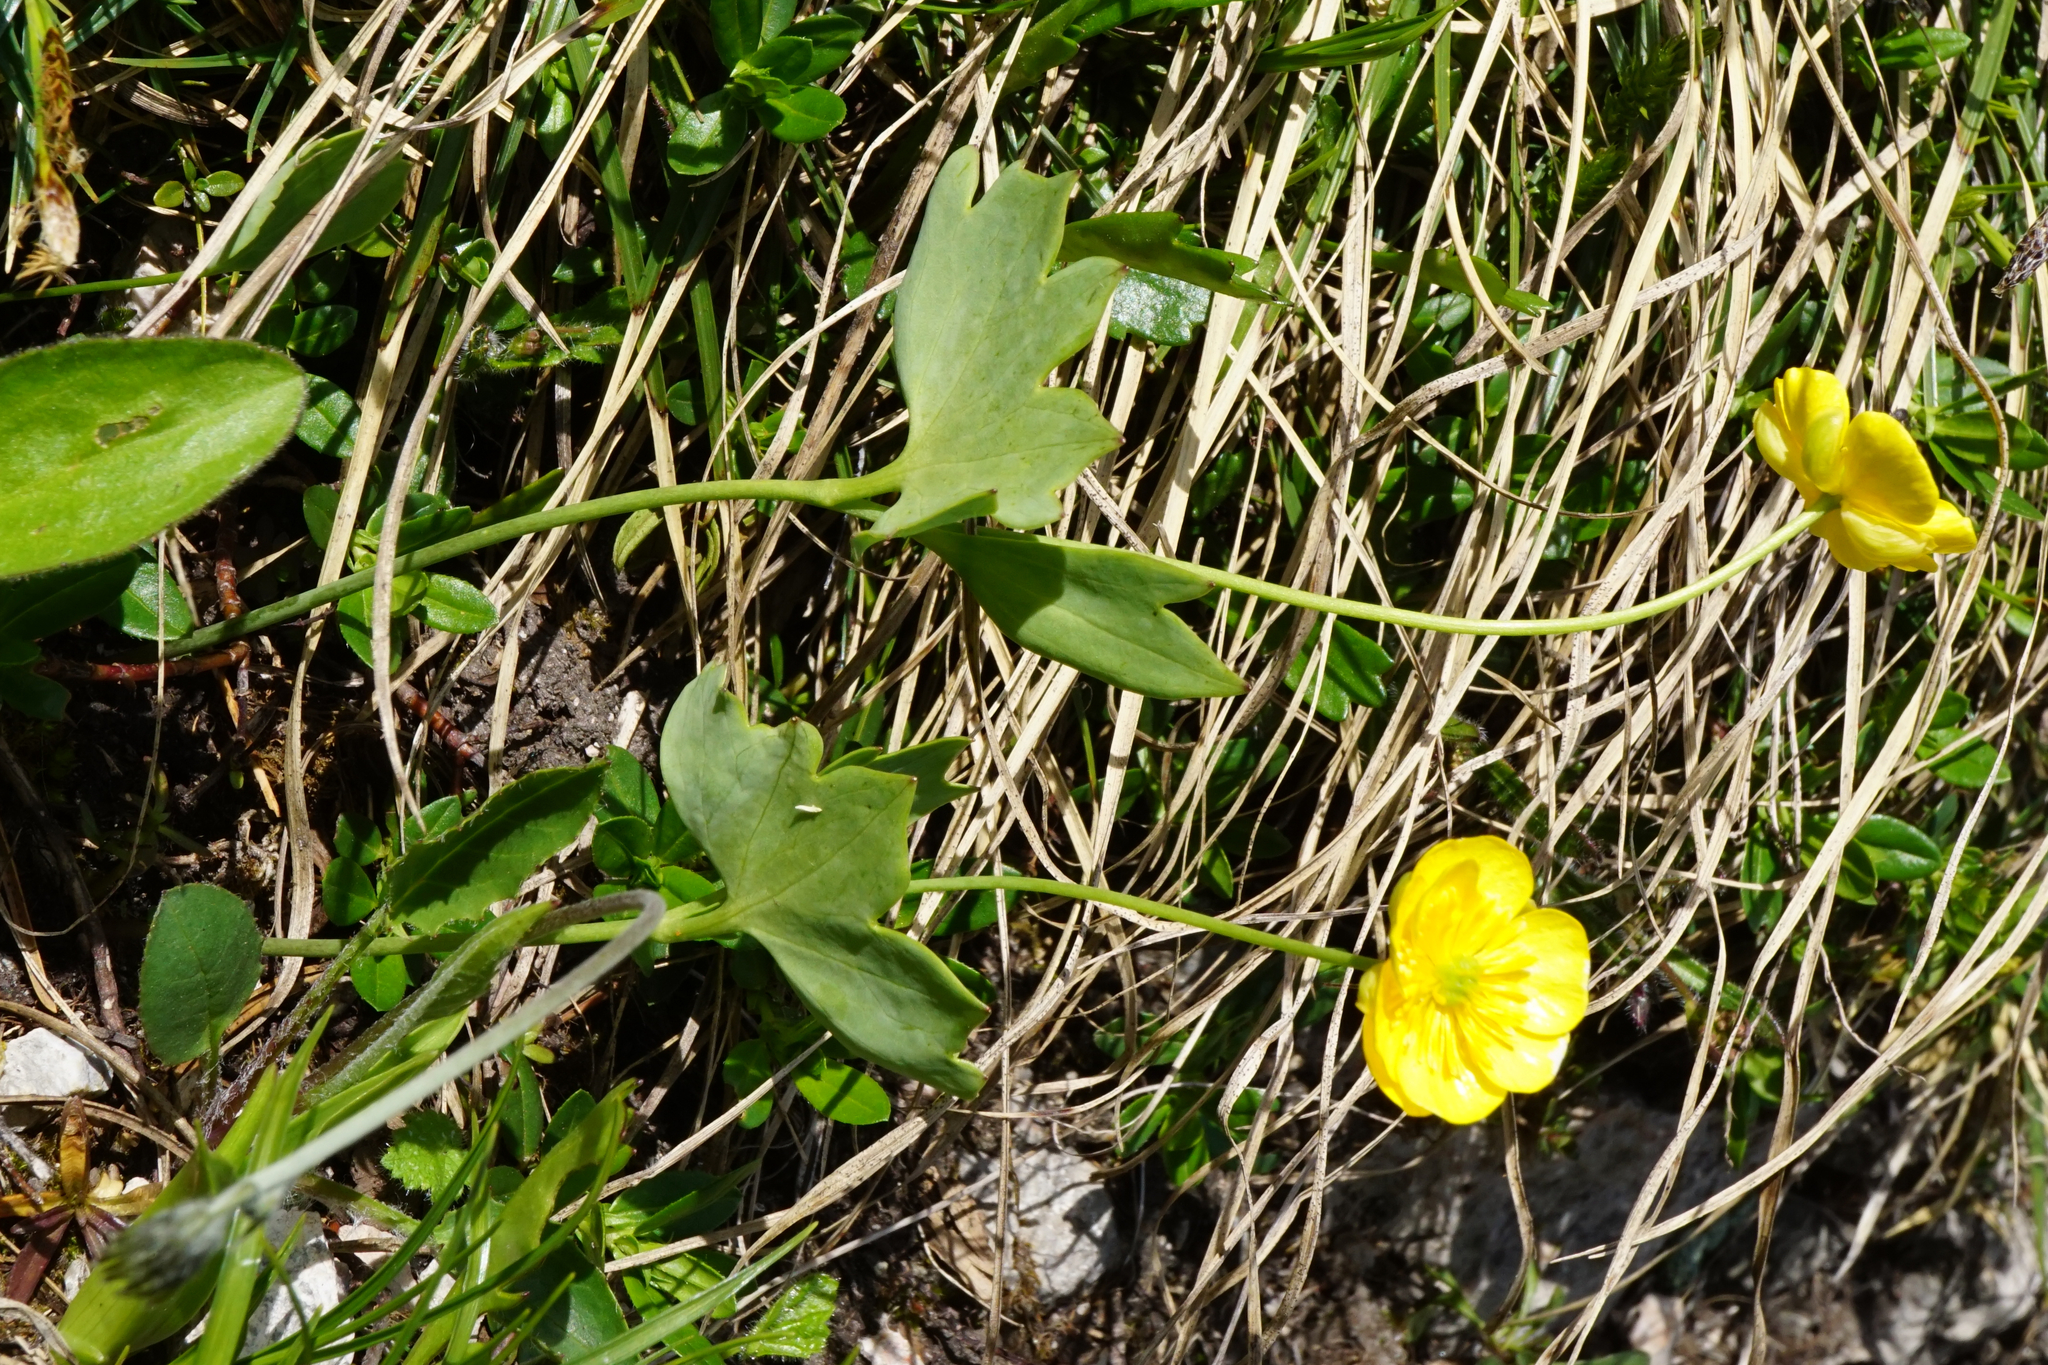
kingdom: Plantae
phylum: Tracheophyta
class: Magnoliopsida
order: Ranunculales
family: Ranunculaceae
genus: Ranunculus
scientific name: Ranunculus hybridus
